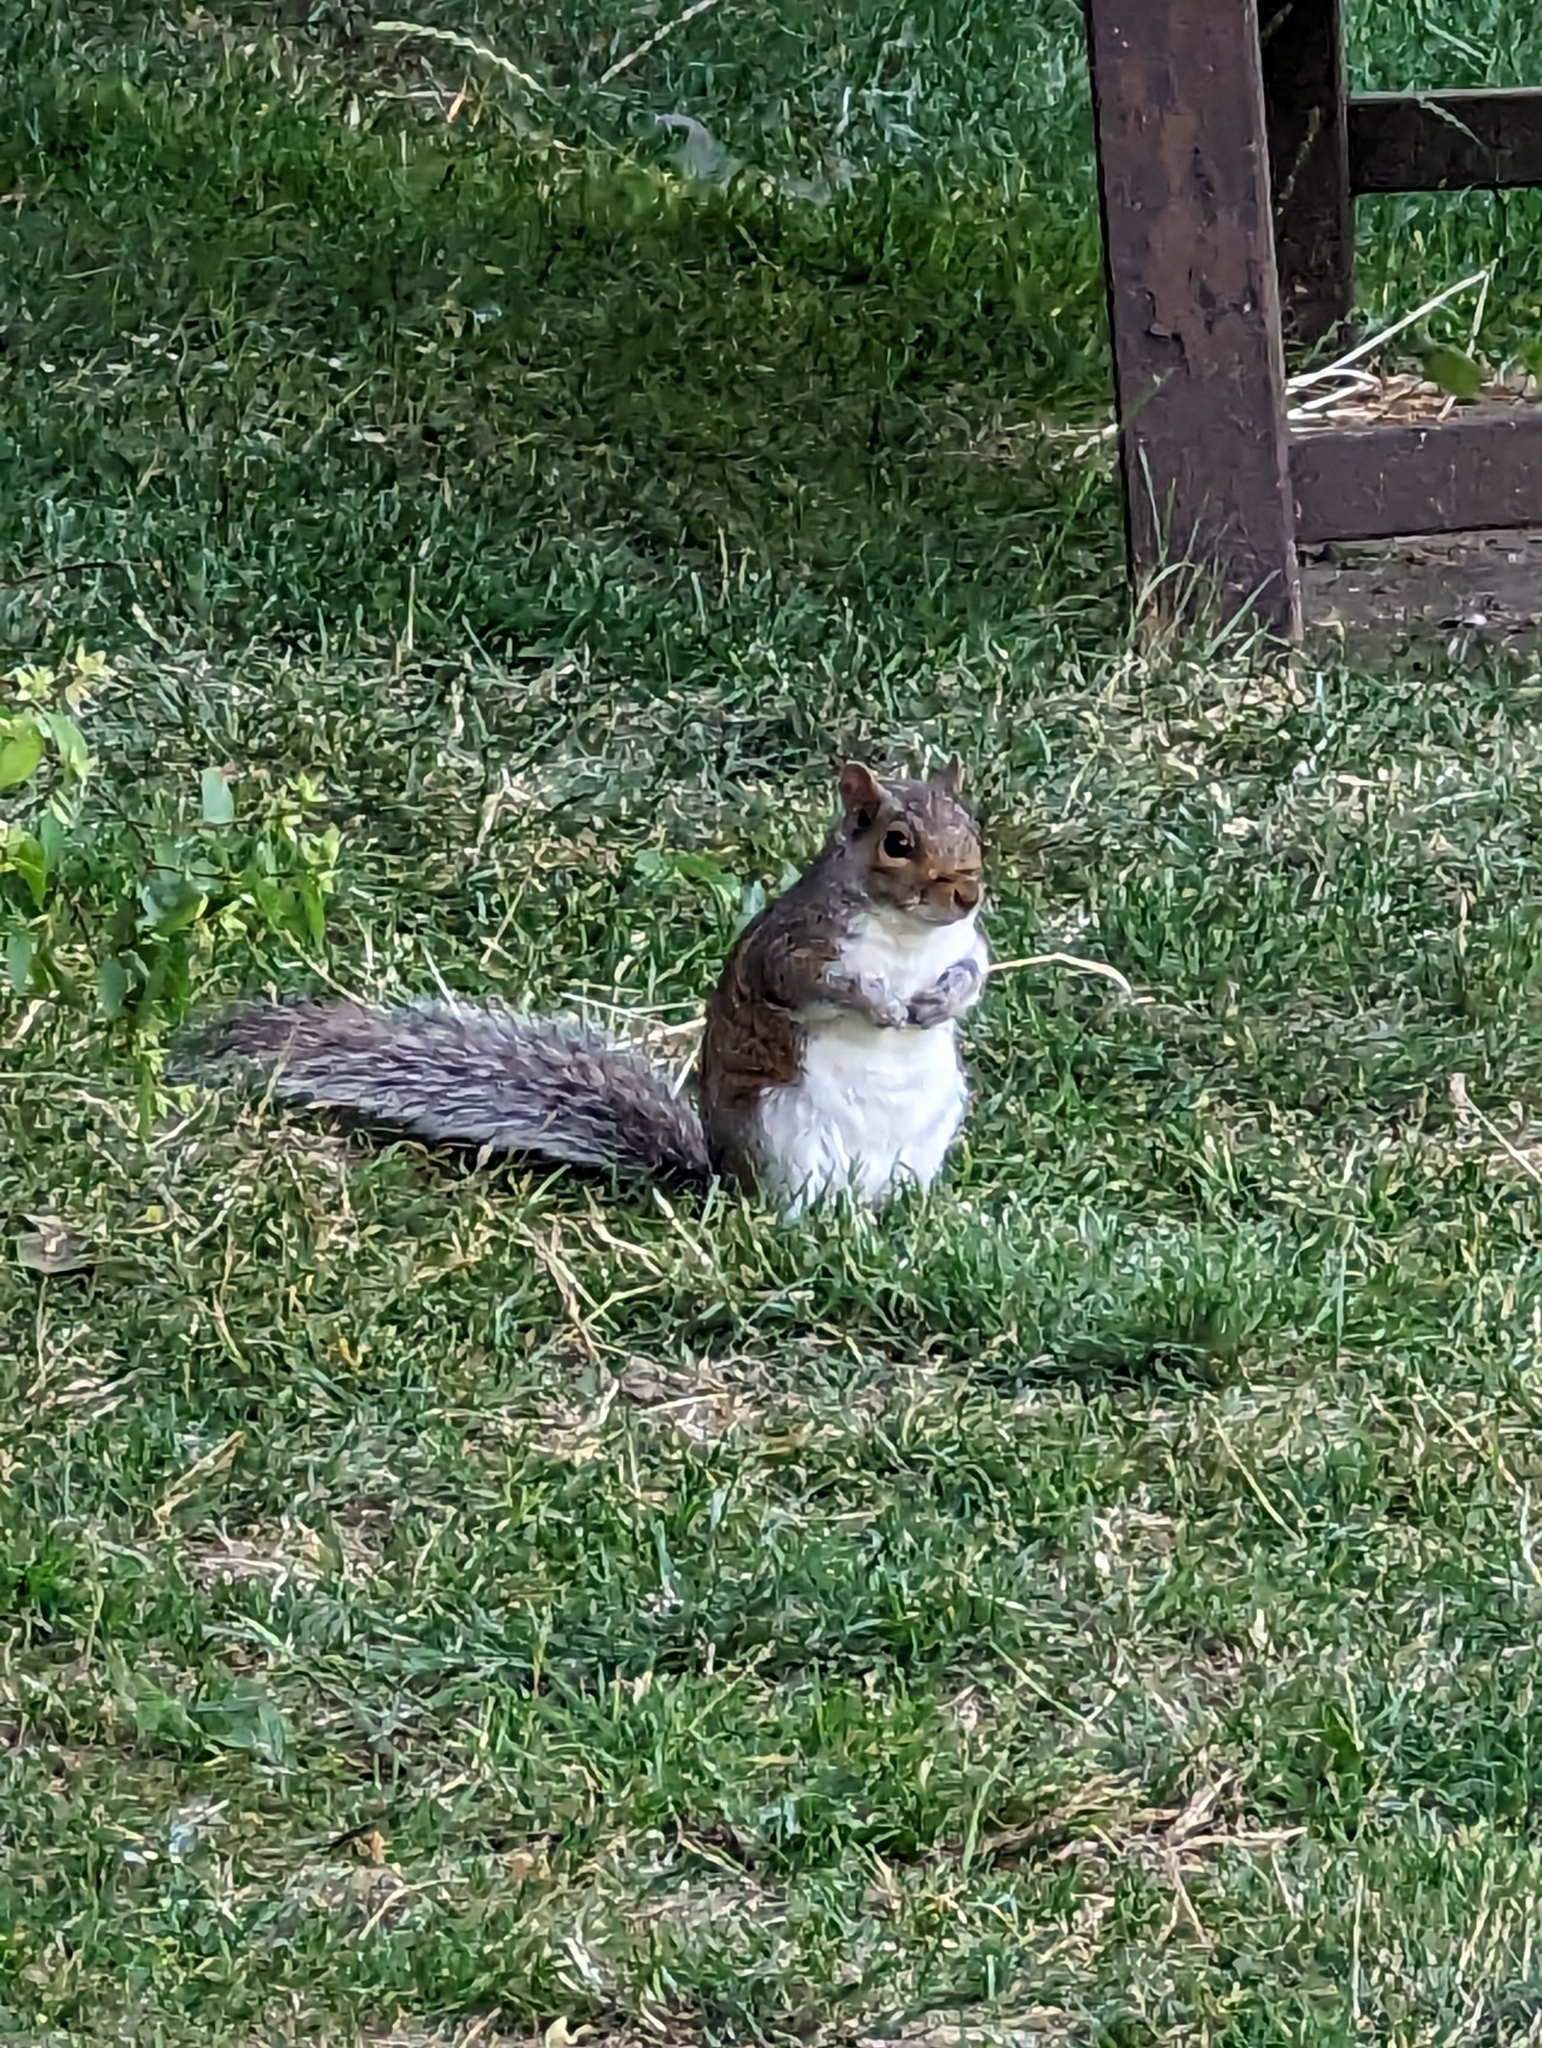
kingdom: Animalia
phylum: Chordata
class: Mammalia
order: Rodentia
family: Sciuridae
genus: Sciurus
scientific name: Sciurus carolinensis
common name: Eastern gray squirrel
